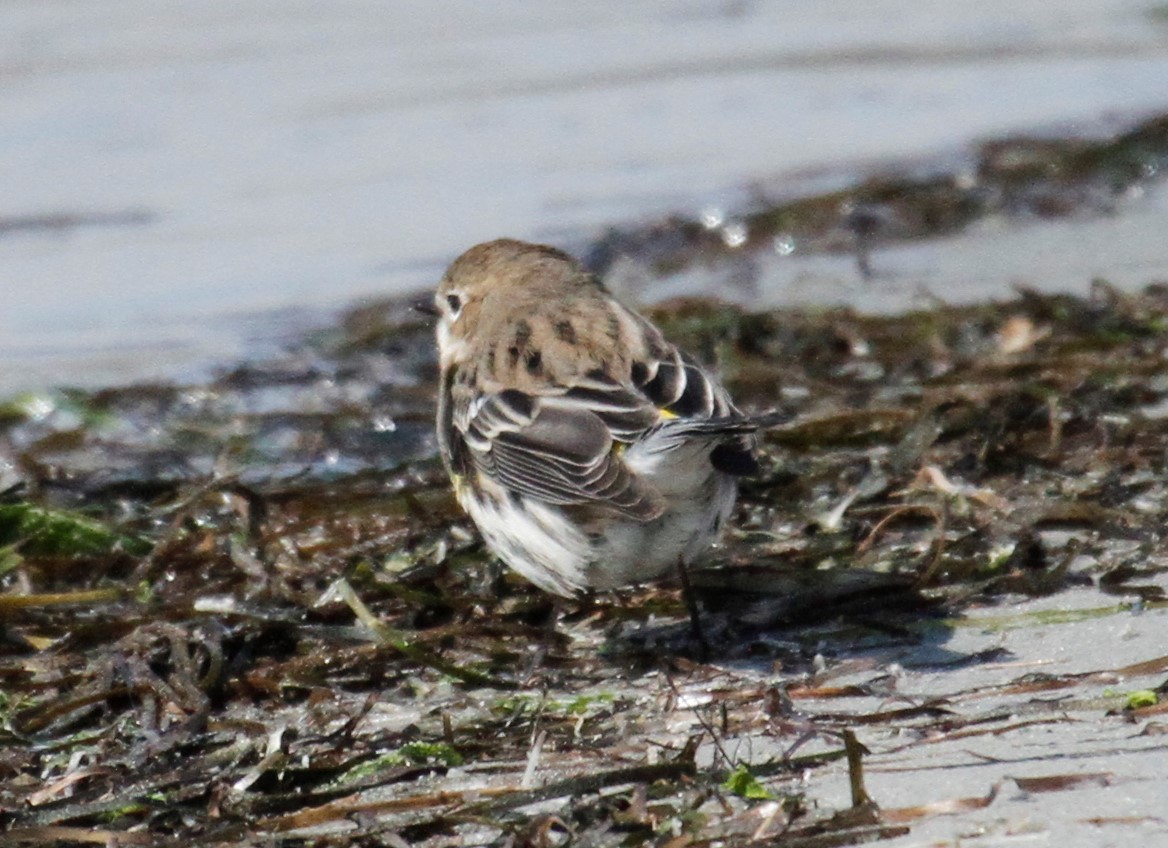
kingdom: Animalia
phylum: Chordata
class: Aves
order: Passeriformes
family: Parulidae
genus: Setophaga
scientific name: Setophaga coronata
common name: Myrtle warbler
